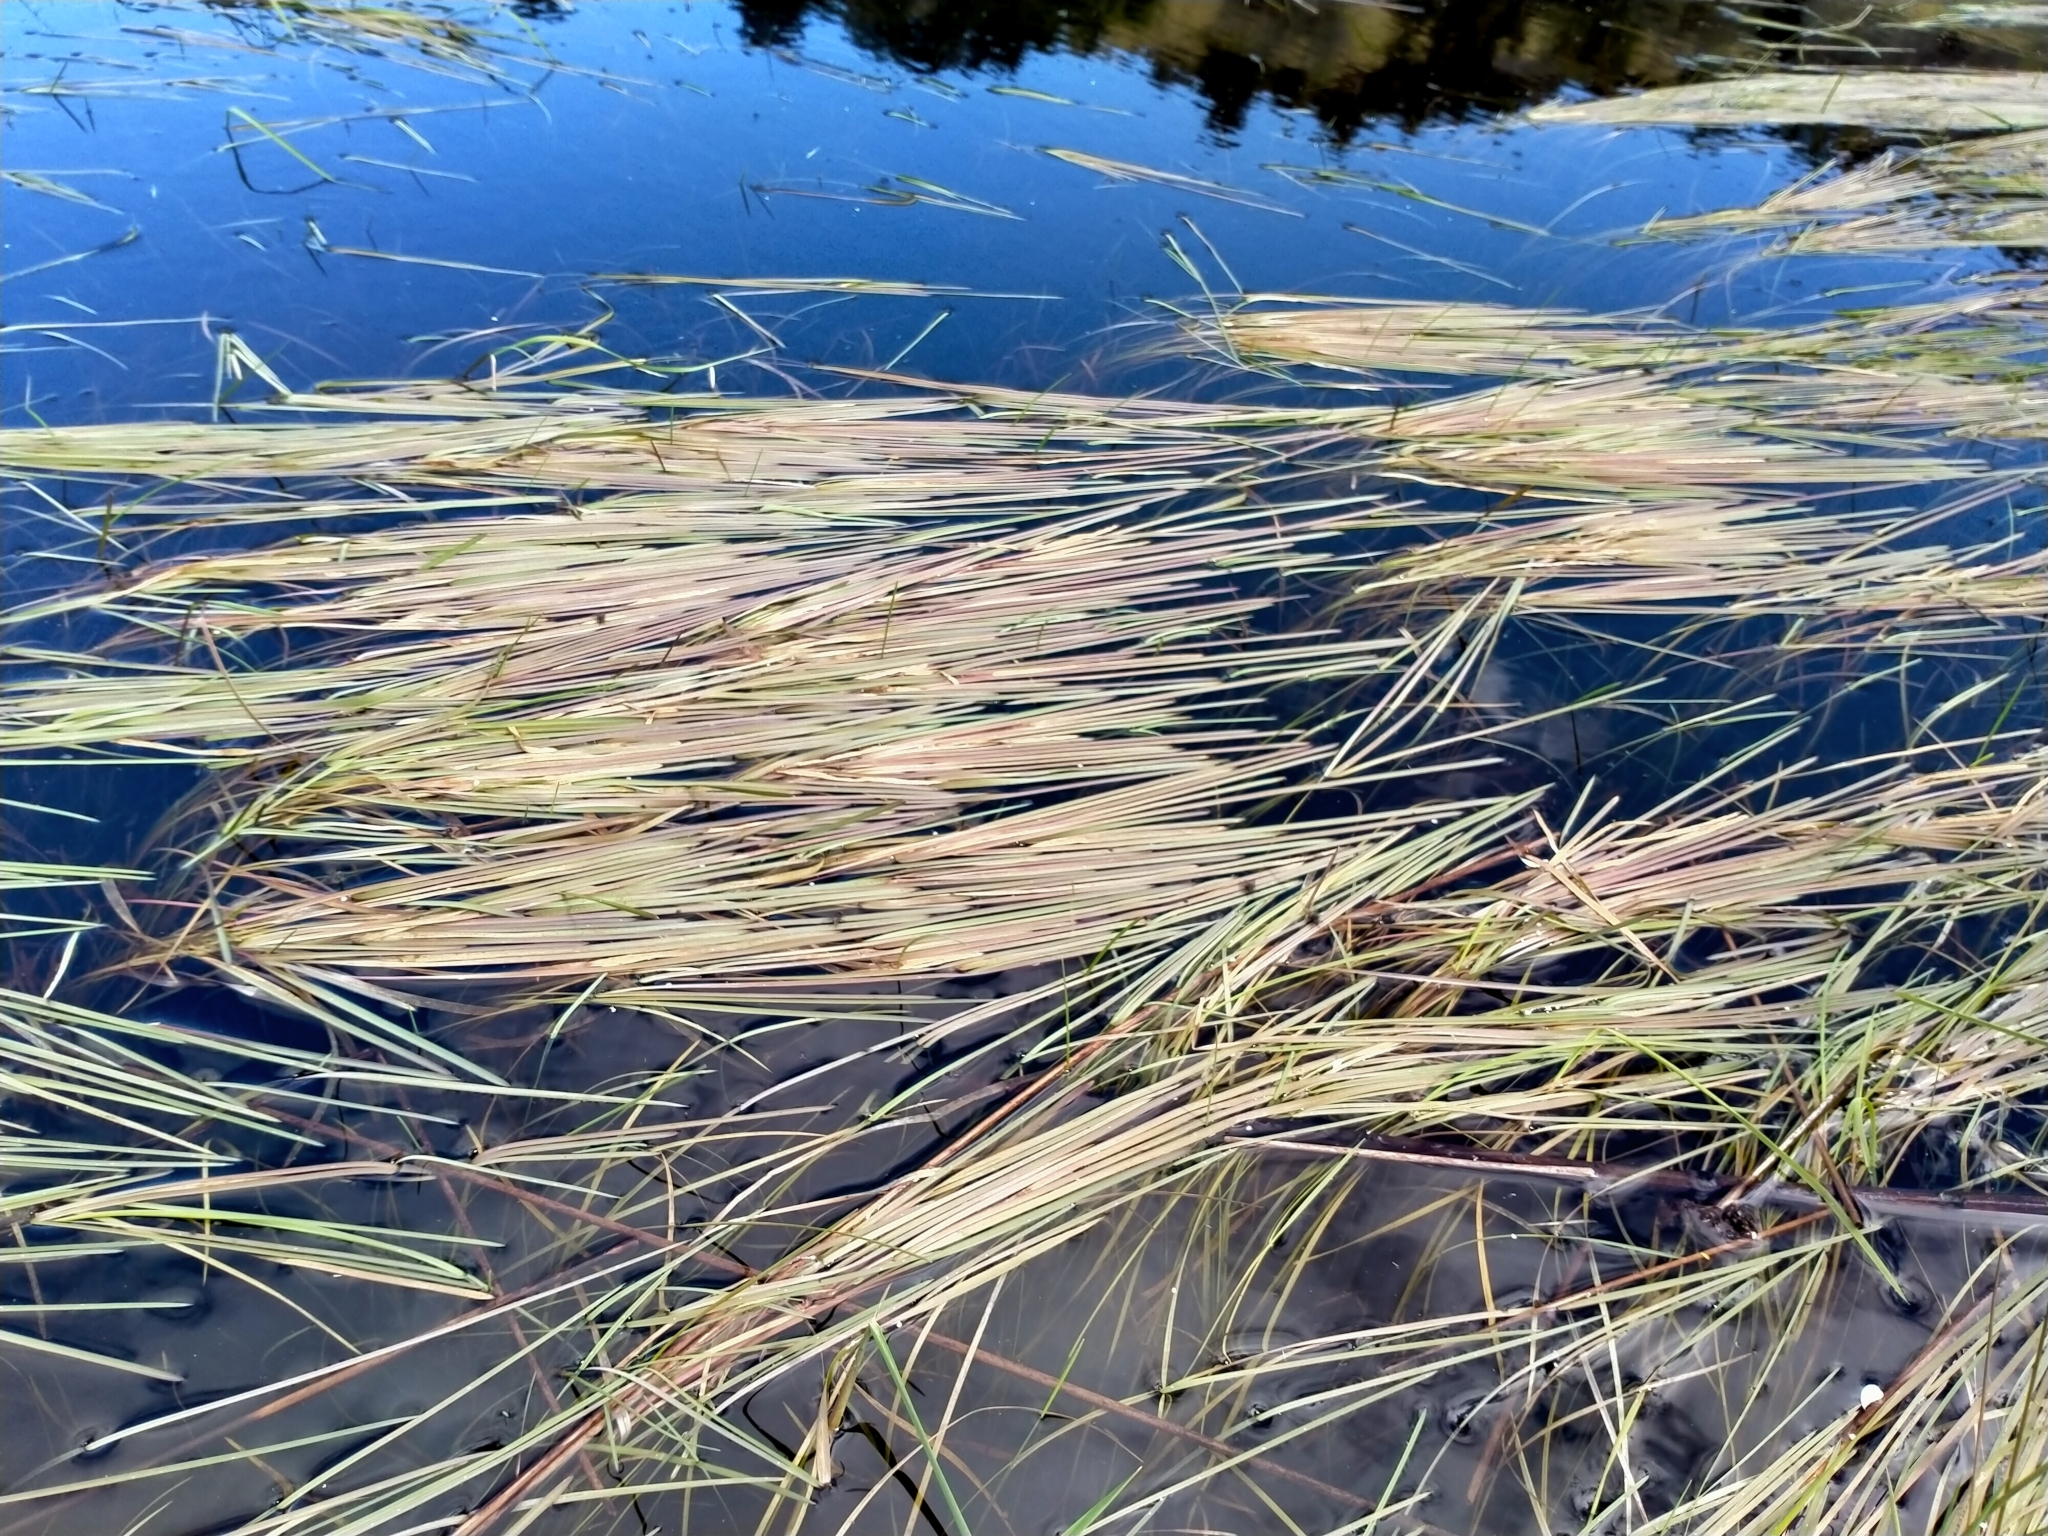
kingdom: Plantae
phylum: Tracheophyta
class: Liliopsida
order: Poales
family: Poaceae
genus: Glyceria
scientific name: Glyceria fluitans
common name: Floating sweet-grass
